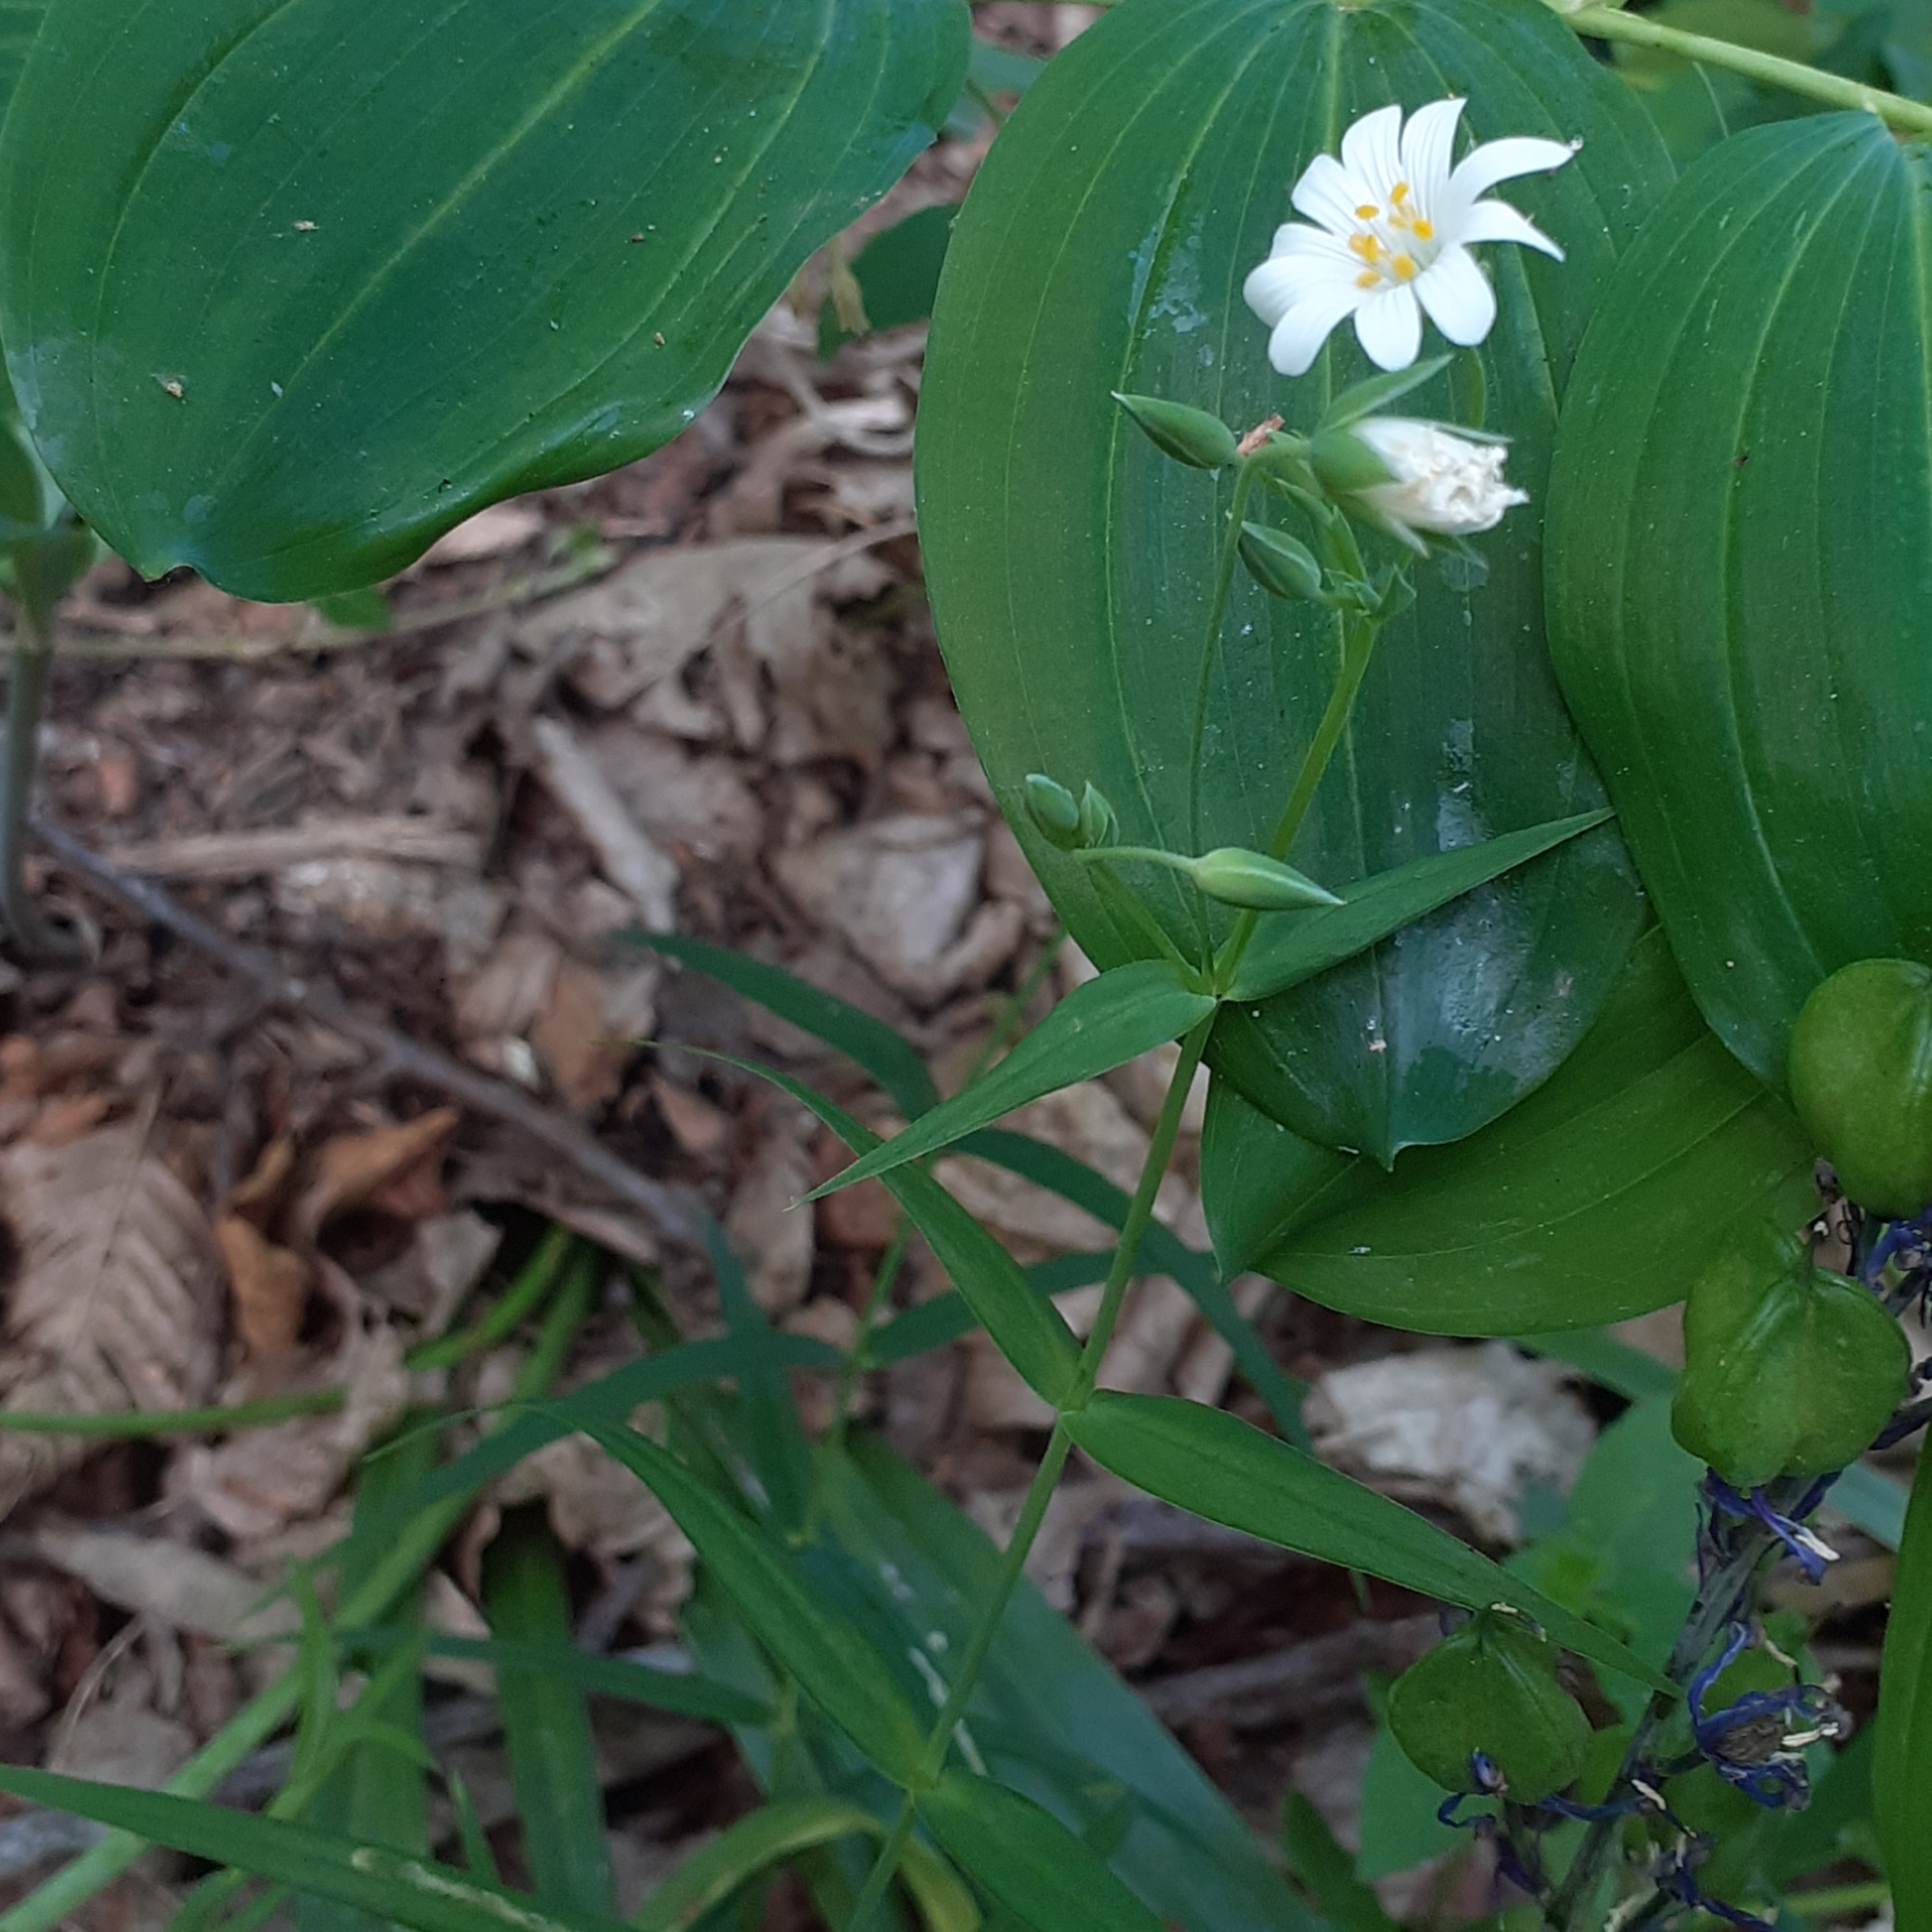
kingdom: Plantae
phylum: Tracheophyta
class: Magnoliopsida
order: Caryophyllales
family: Caryophyllaceae
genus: Rabelera
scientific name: Rabelera holostea
